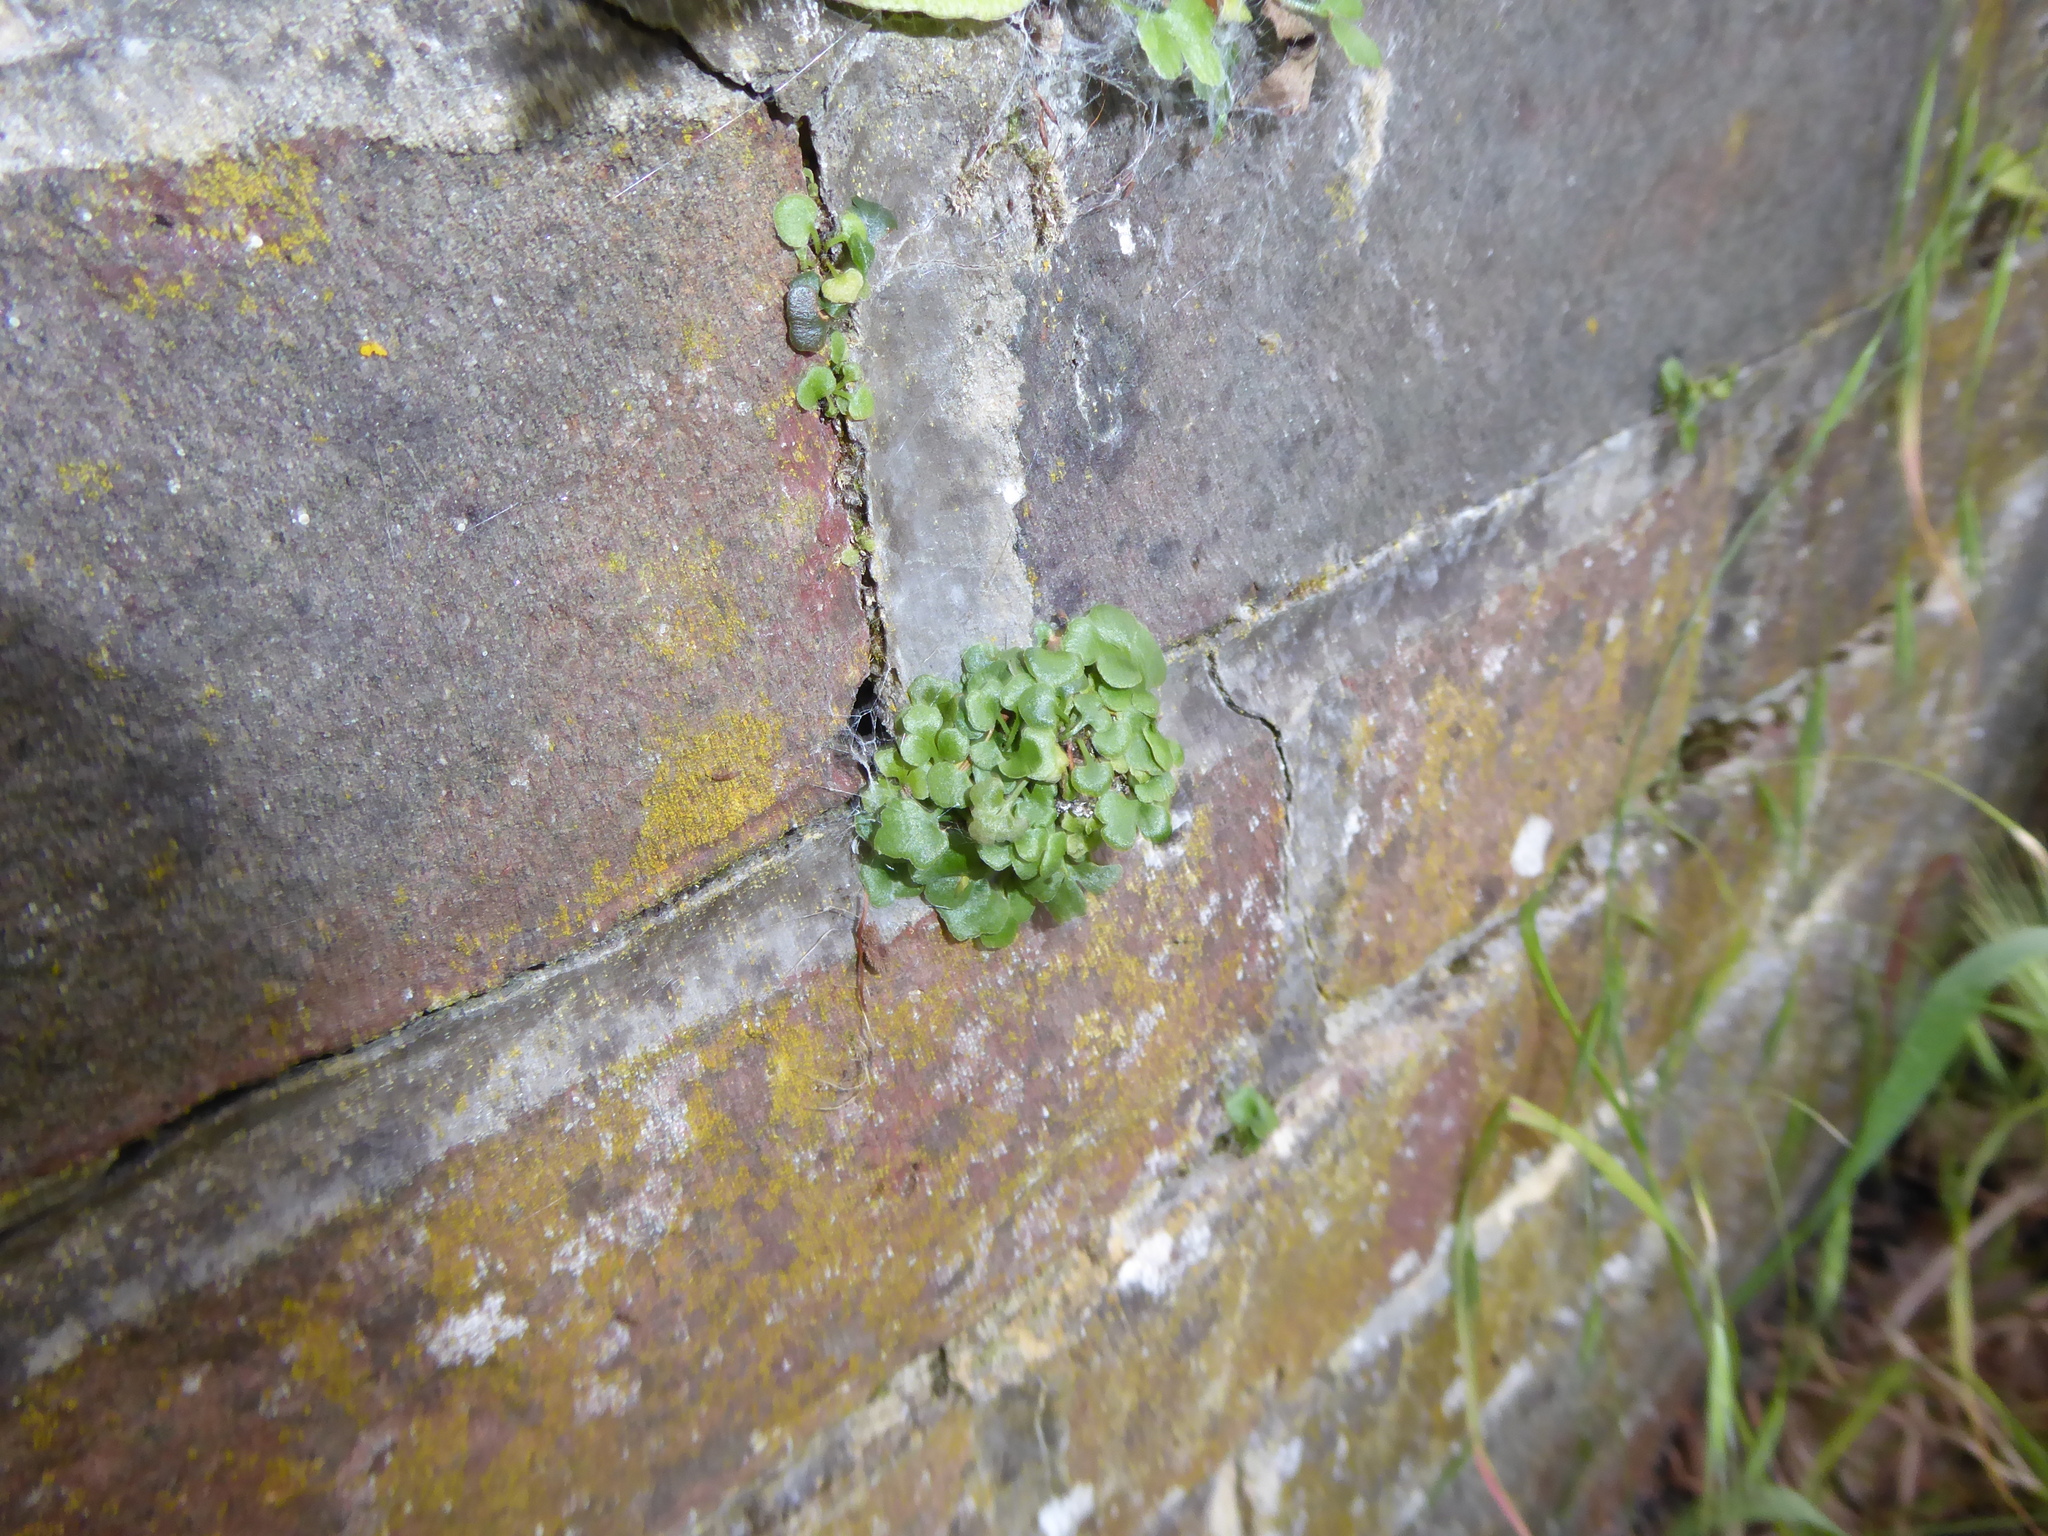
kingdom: Plantae
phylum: Tracheophyta
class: Polypodiopsida
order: Polypodiales
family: Aspleniaceae
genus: Asplenium
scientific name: Asplenium ruta-muraria
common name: Wall-rue
